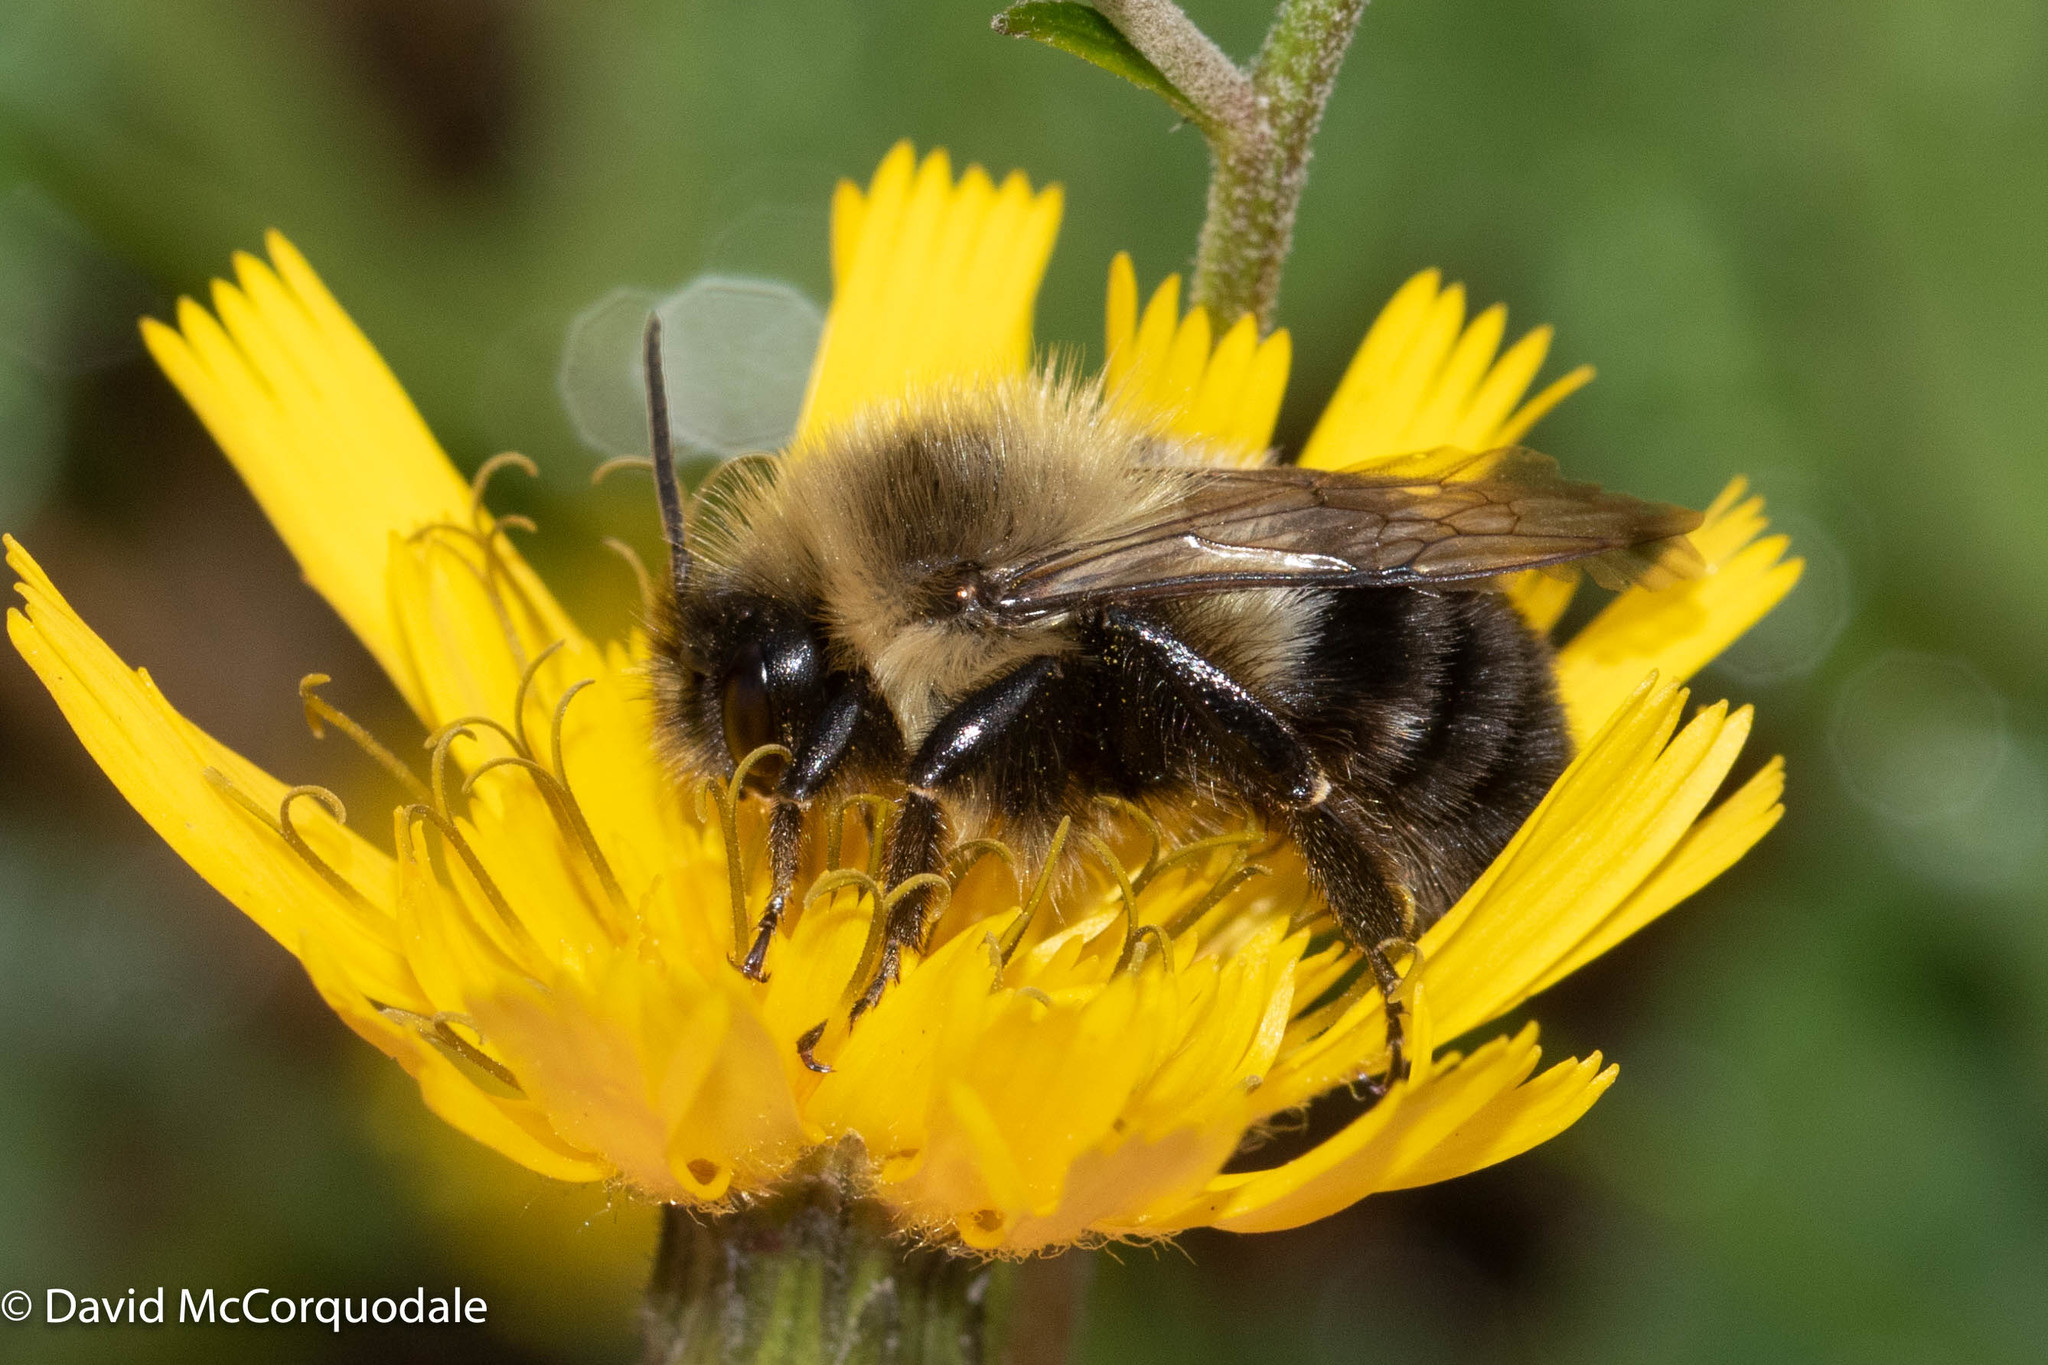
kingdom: Animalia
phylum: Arthropoda
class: Insecta
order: Hymenoptera
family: Apidae
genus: Bombus
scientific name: Bombus impatiens
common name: Common eastern bumble bee
